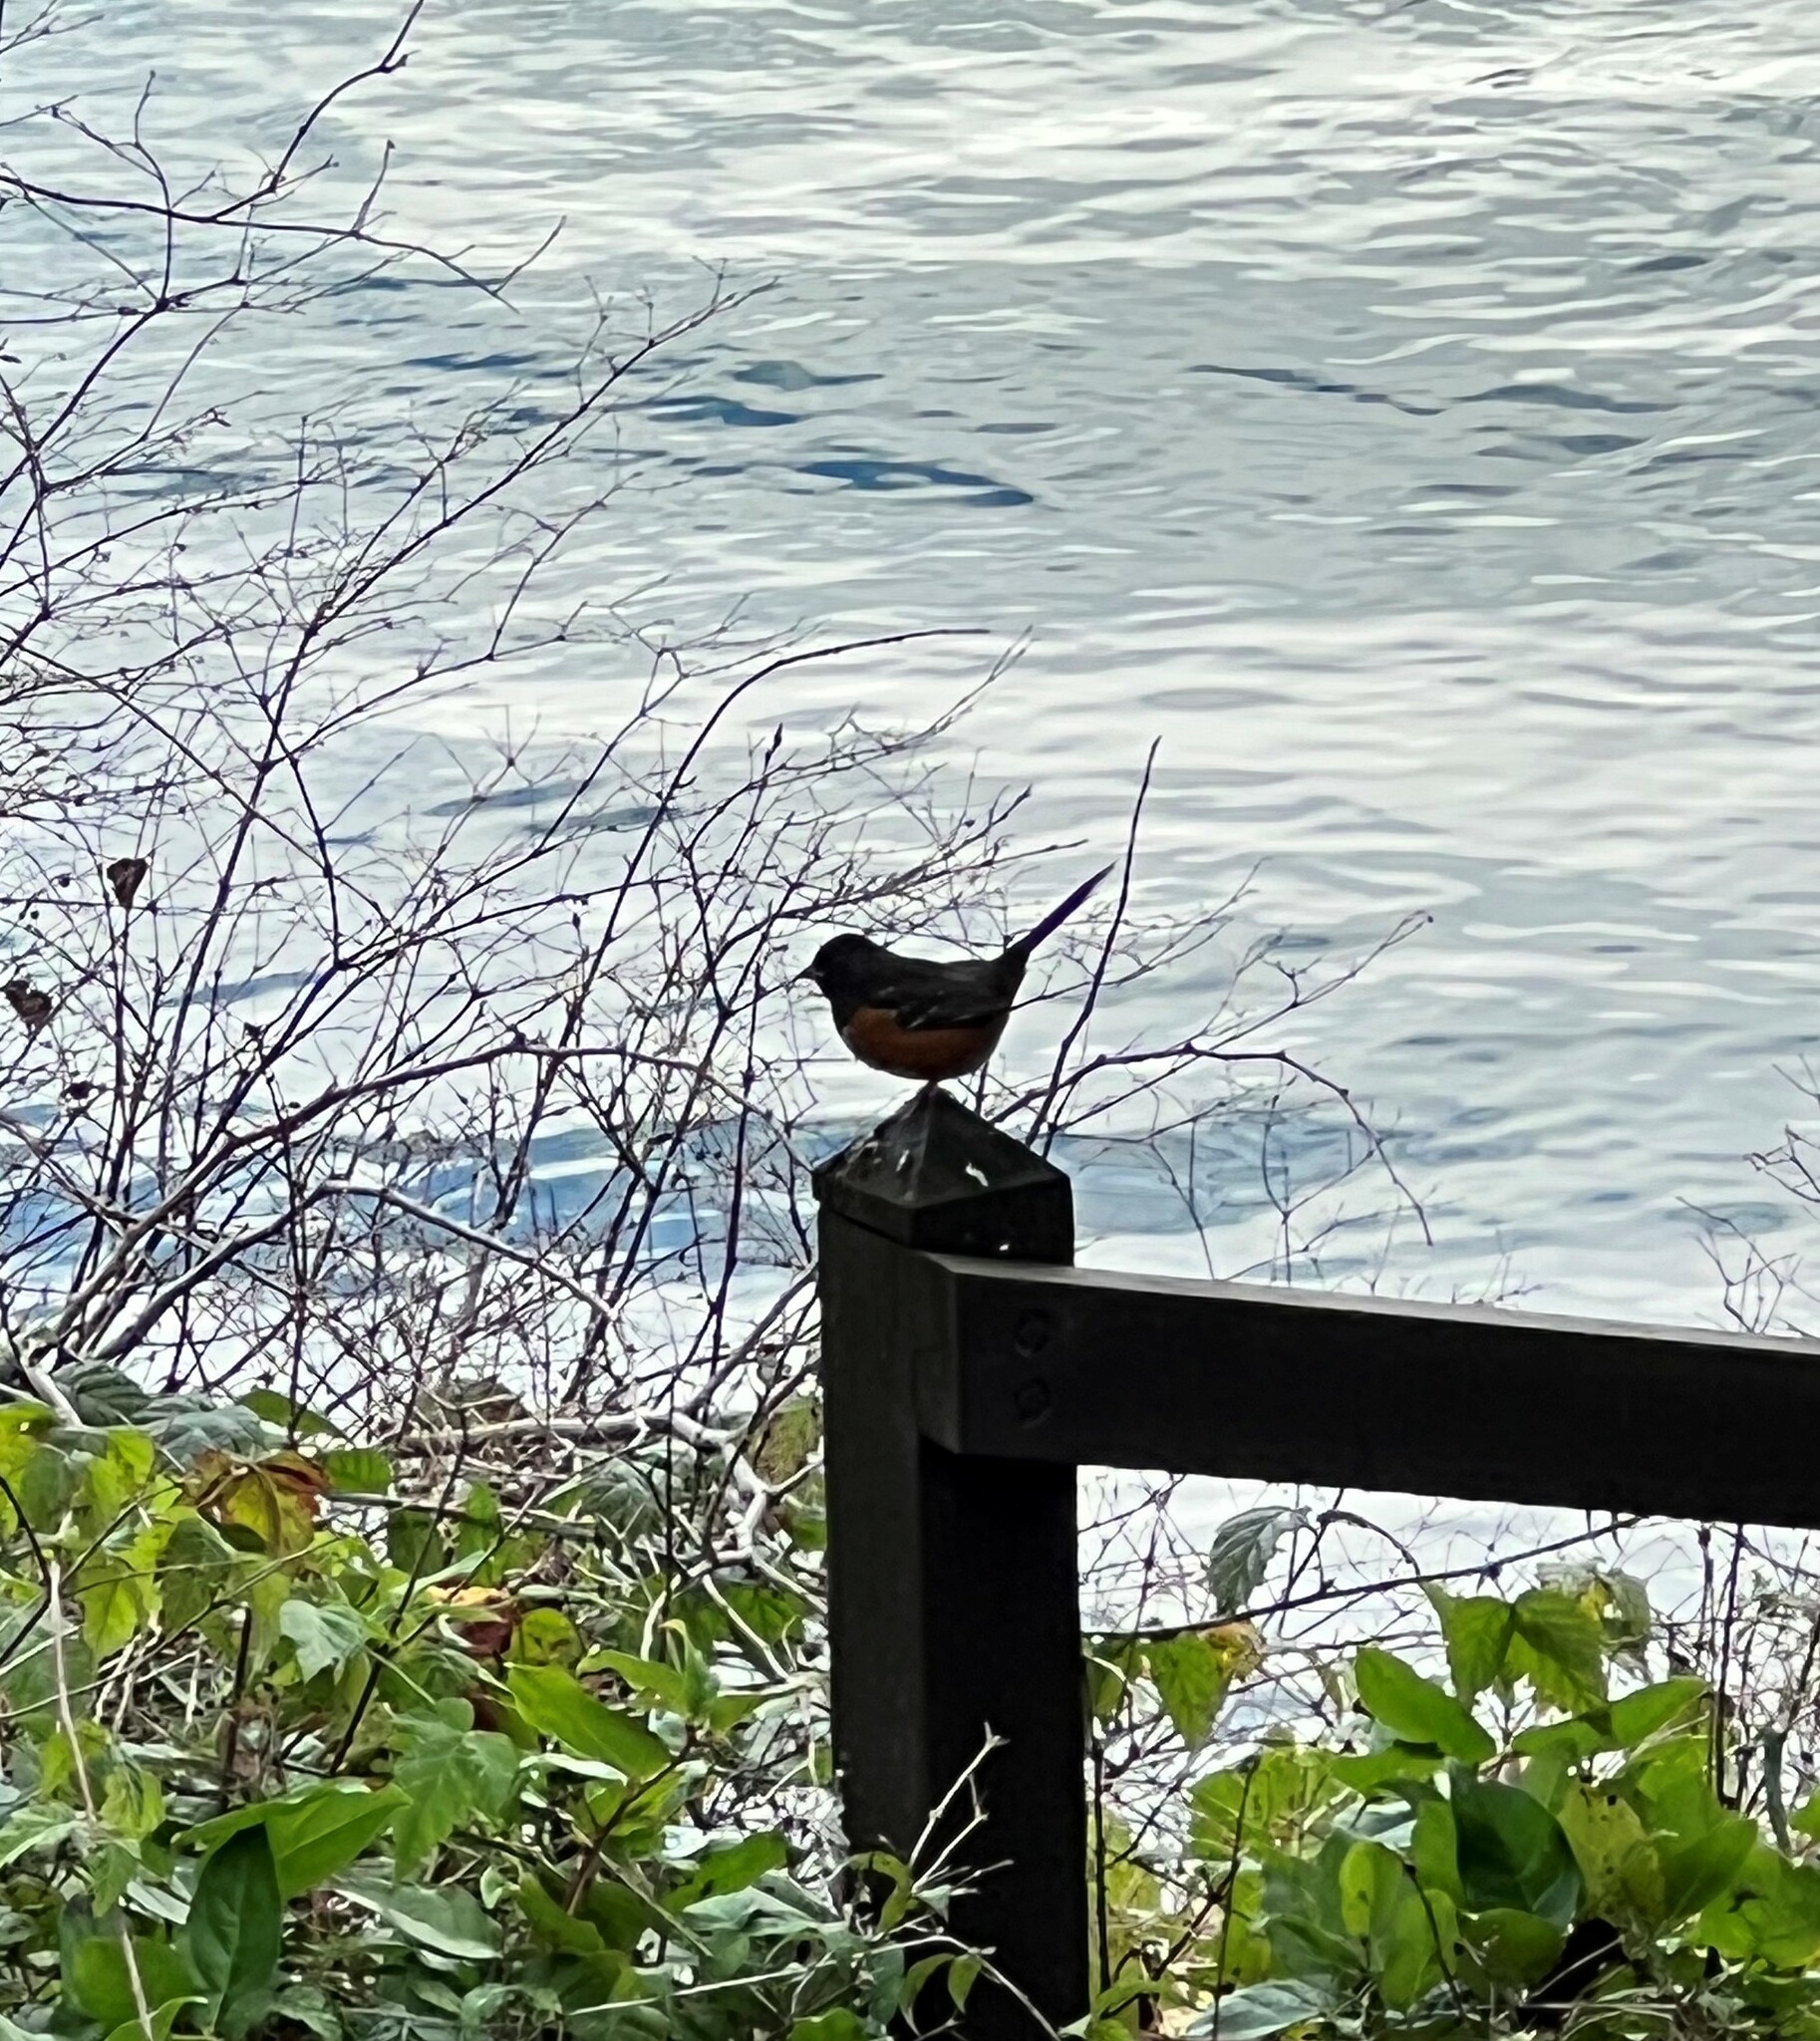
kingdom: Animalia
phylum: Chordata
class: Aves
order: Passeriformes
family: Passerellidae
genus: Pipilo
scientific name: Pipilo maculatus
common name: Spotted towhee
